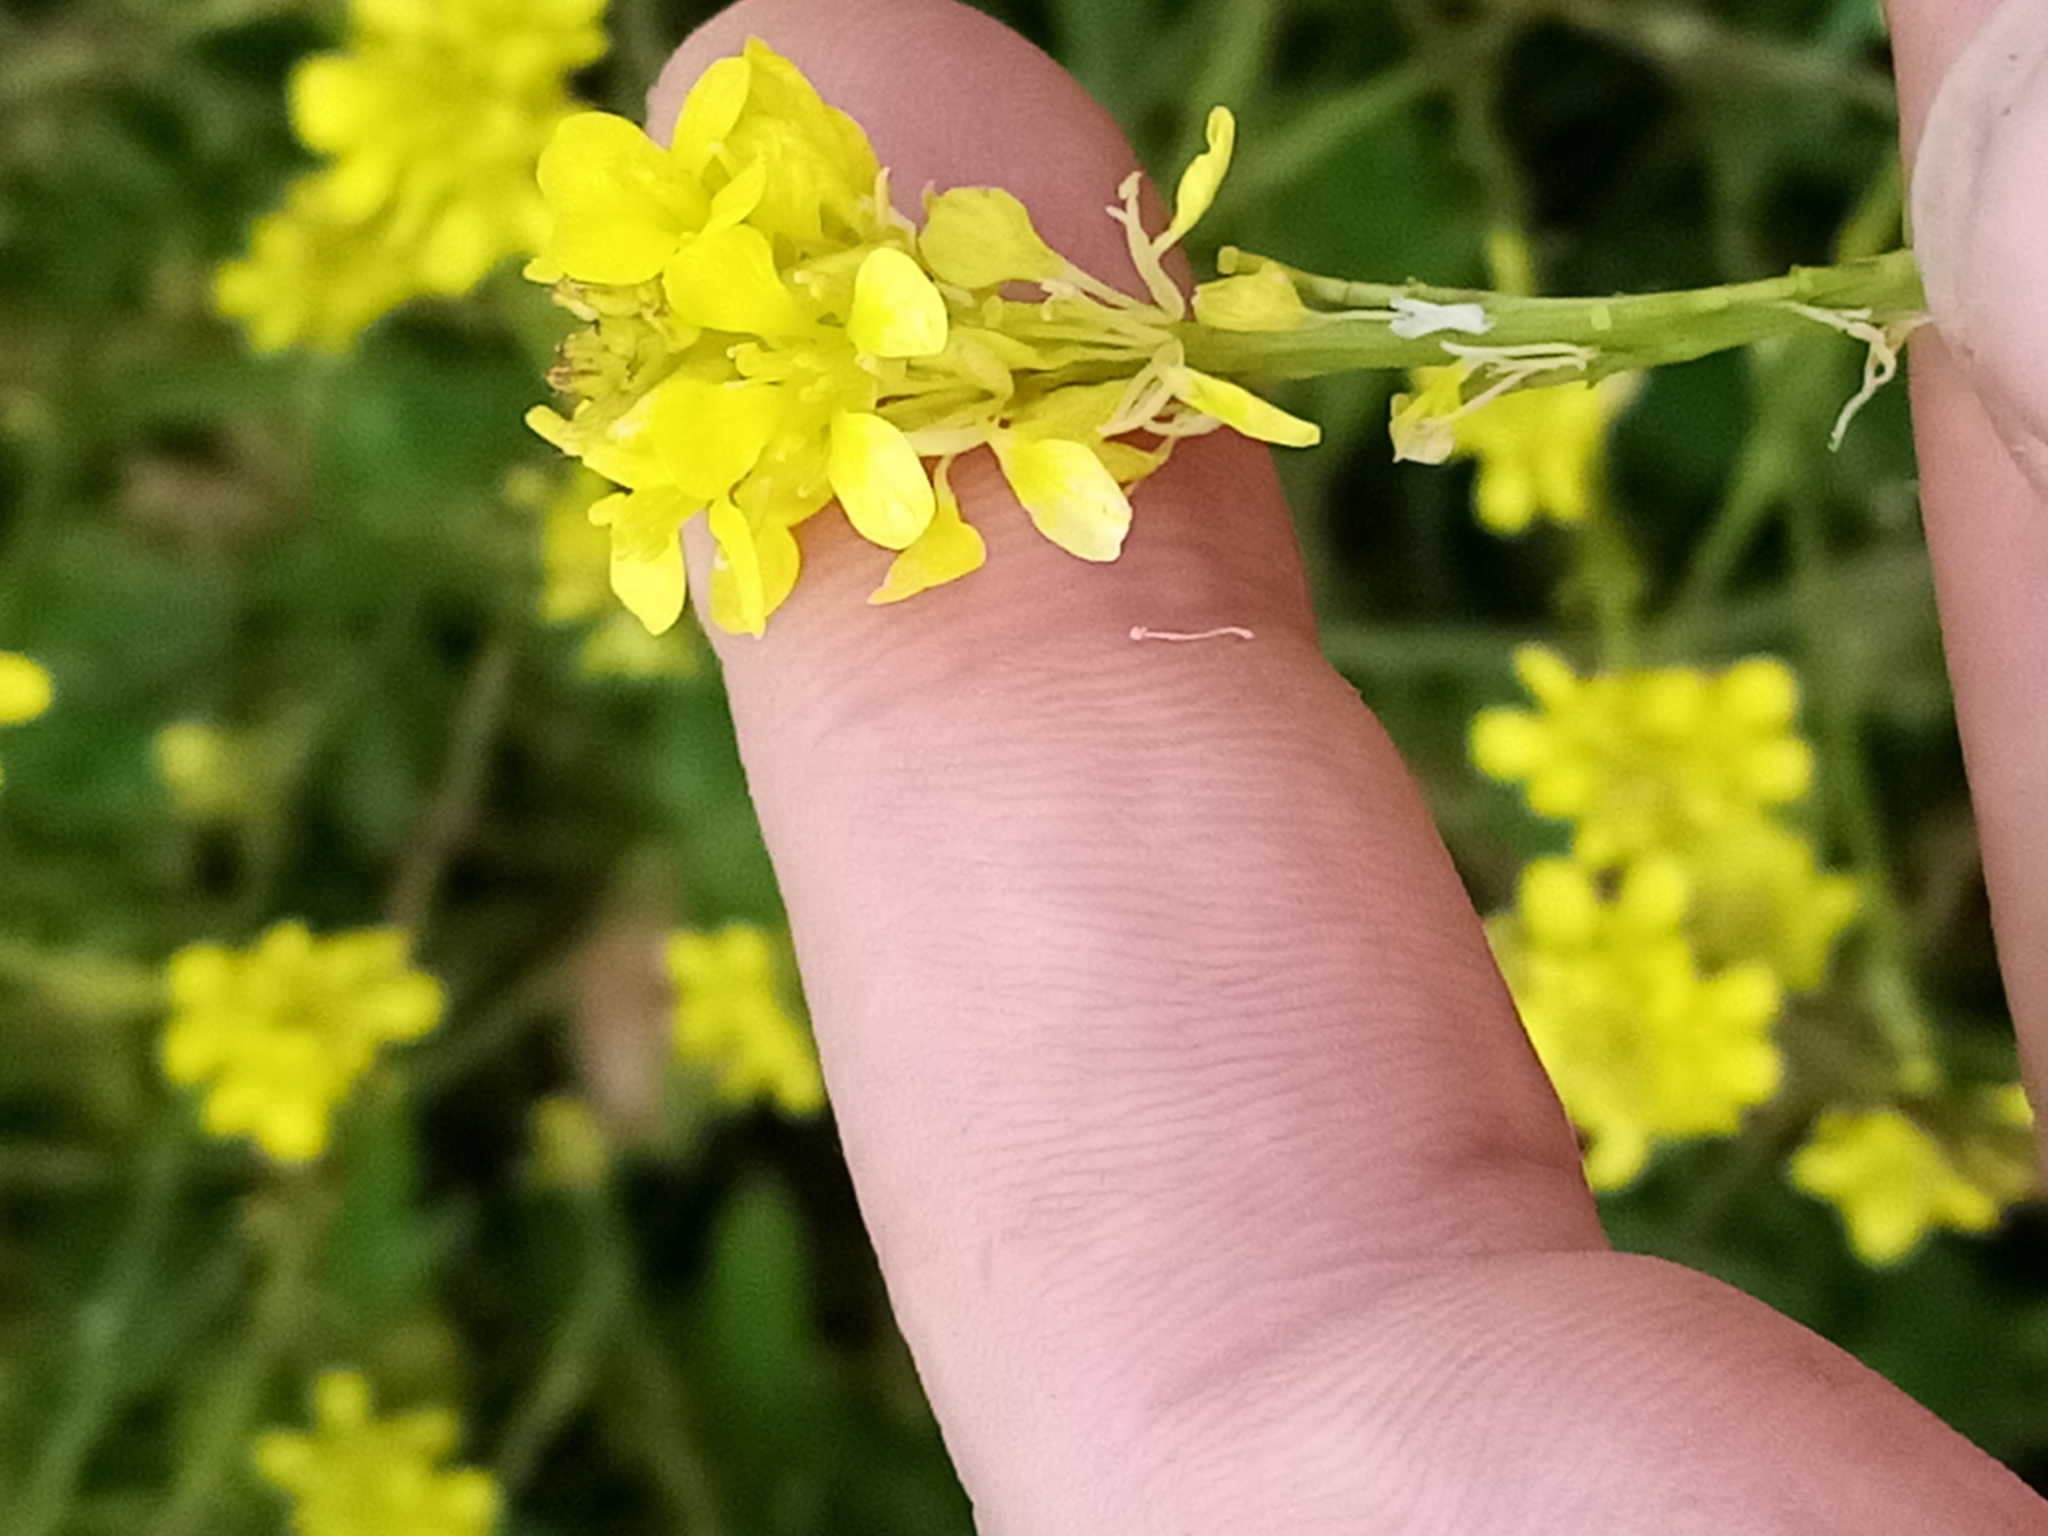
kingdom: Plantae
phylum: Tracheophyta
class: Magnoliopsida
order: Brassicales
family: Brassicaceae
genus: Hirschfeldia
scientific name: Hirschfeldia incana
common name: Hoary mustard
